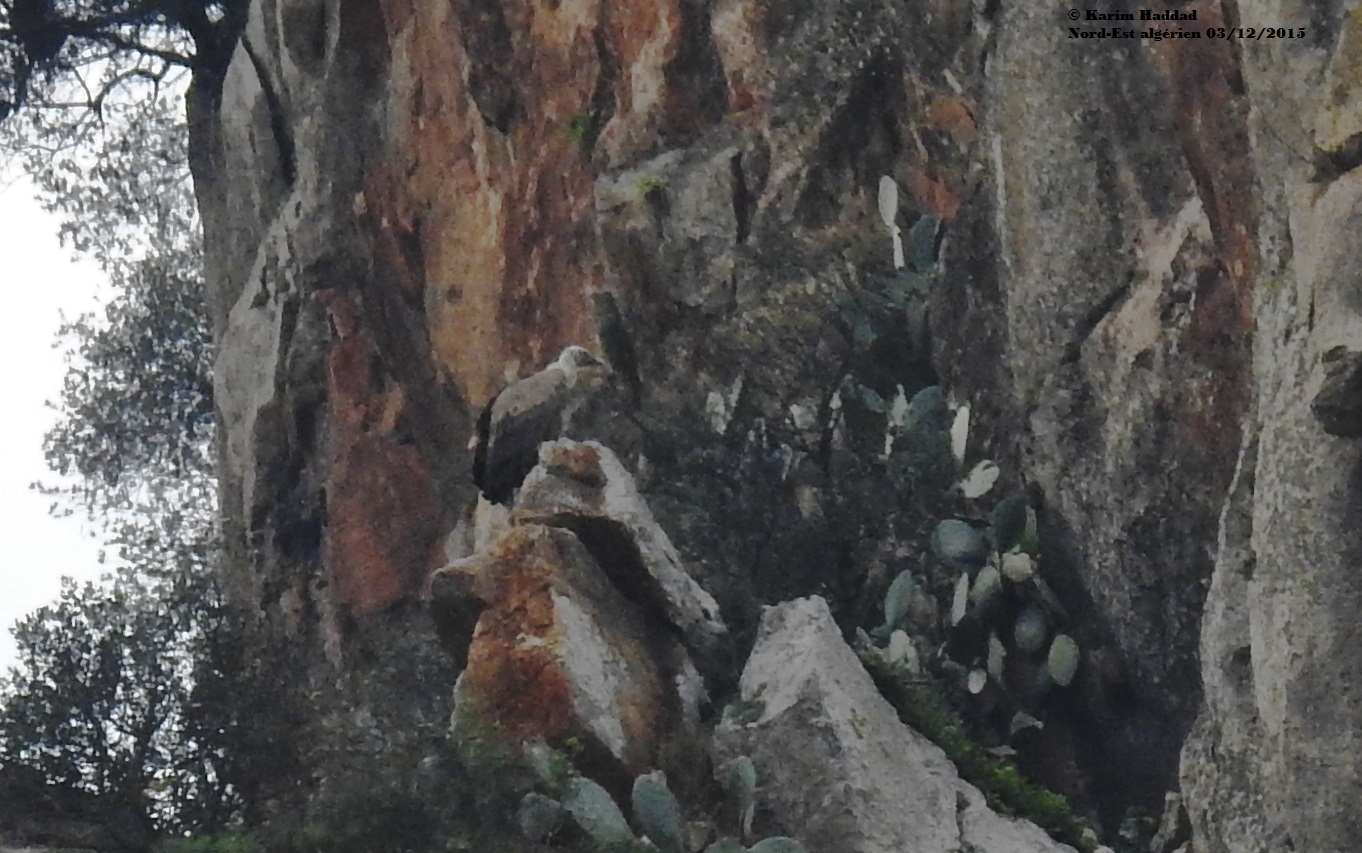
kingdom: Animalia
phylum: Chordata
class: Aves
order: Accipitriformes
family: Accipitridae
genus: Gyps
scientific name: Gyps fulvus
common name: Griffon vulture
